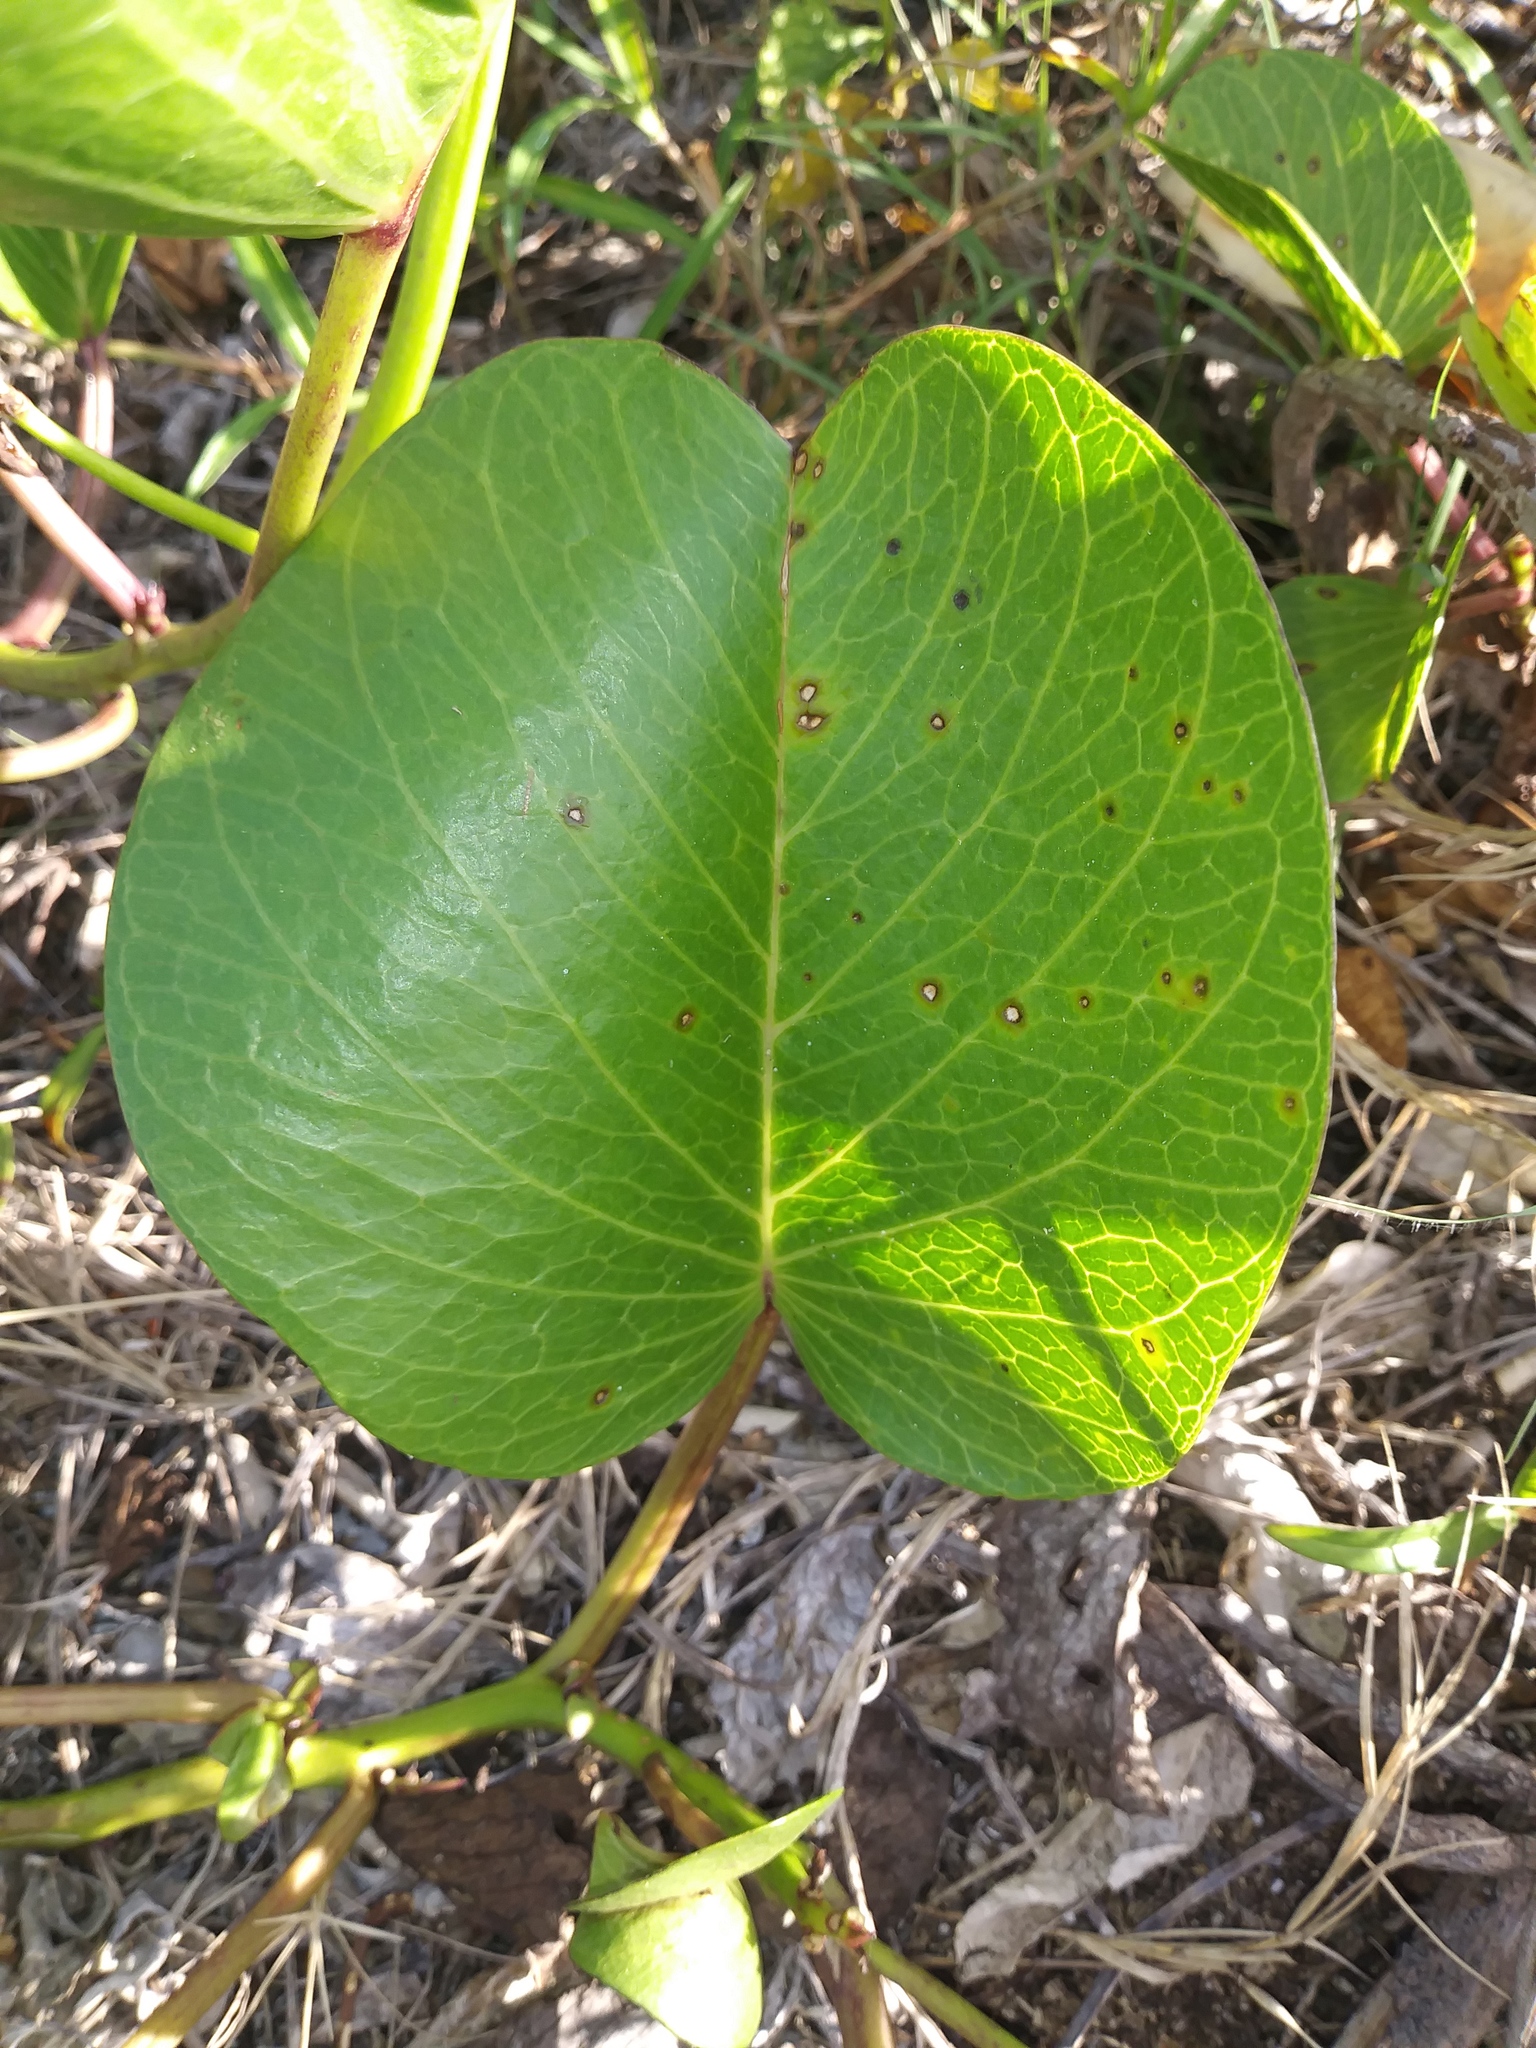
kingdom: Plantae
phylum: Tracheophyta
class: Magnoliopsida
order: Solanales
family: Convolvulaceae
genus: Ipomoea
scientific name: Ipomoea pes-caprae
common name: Beach morning glory
